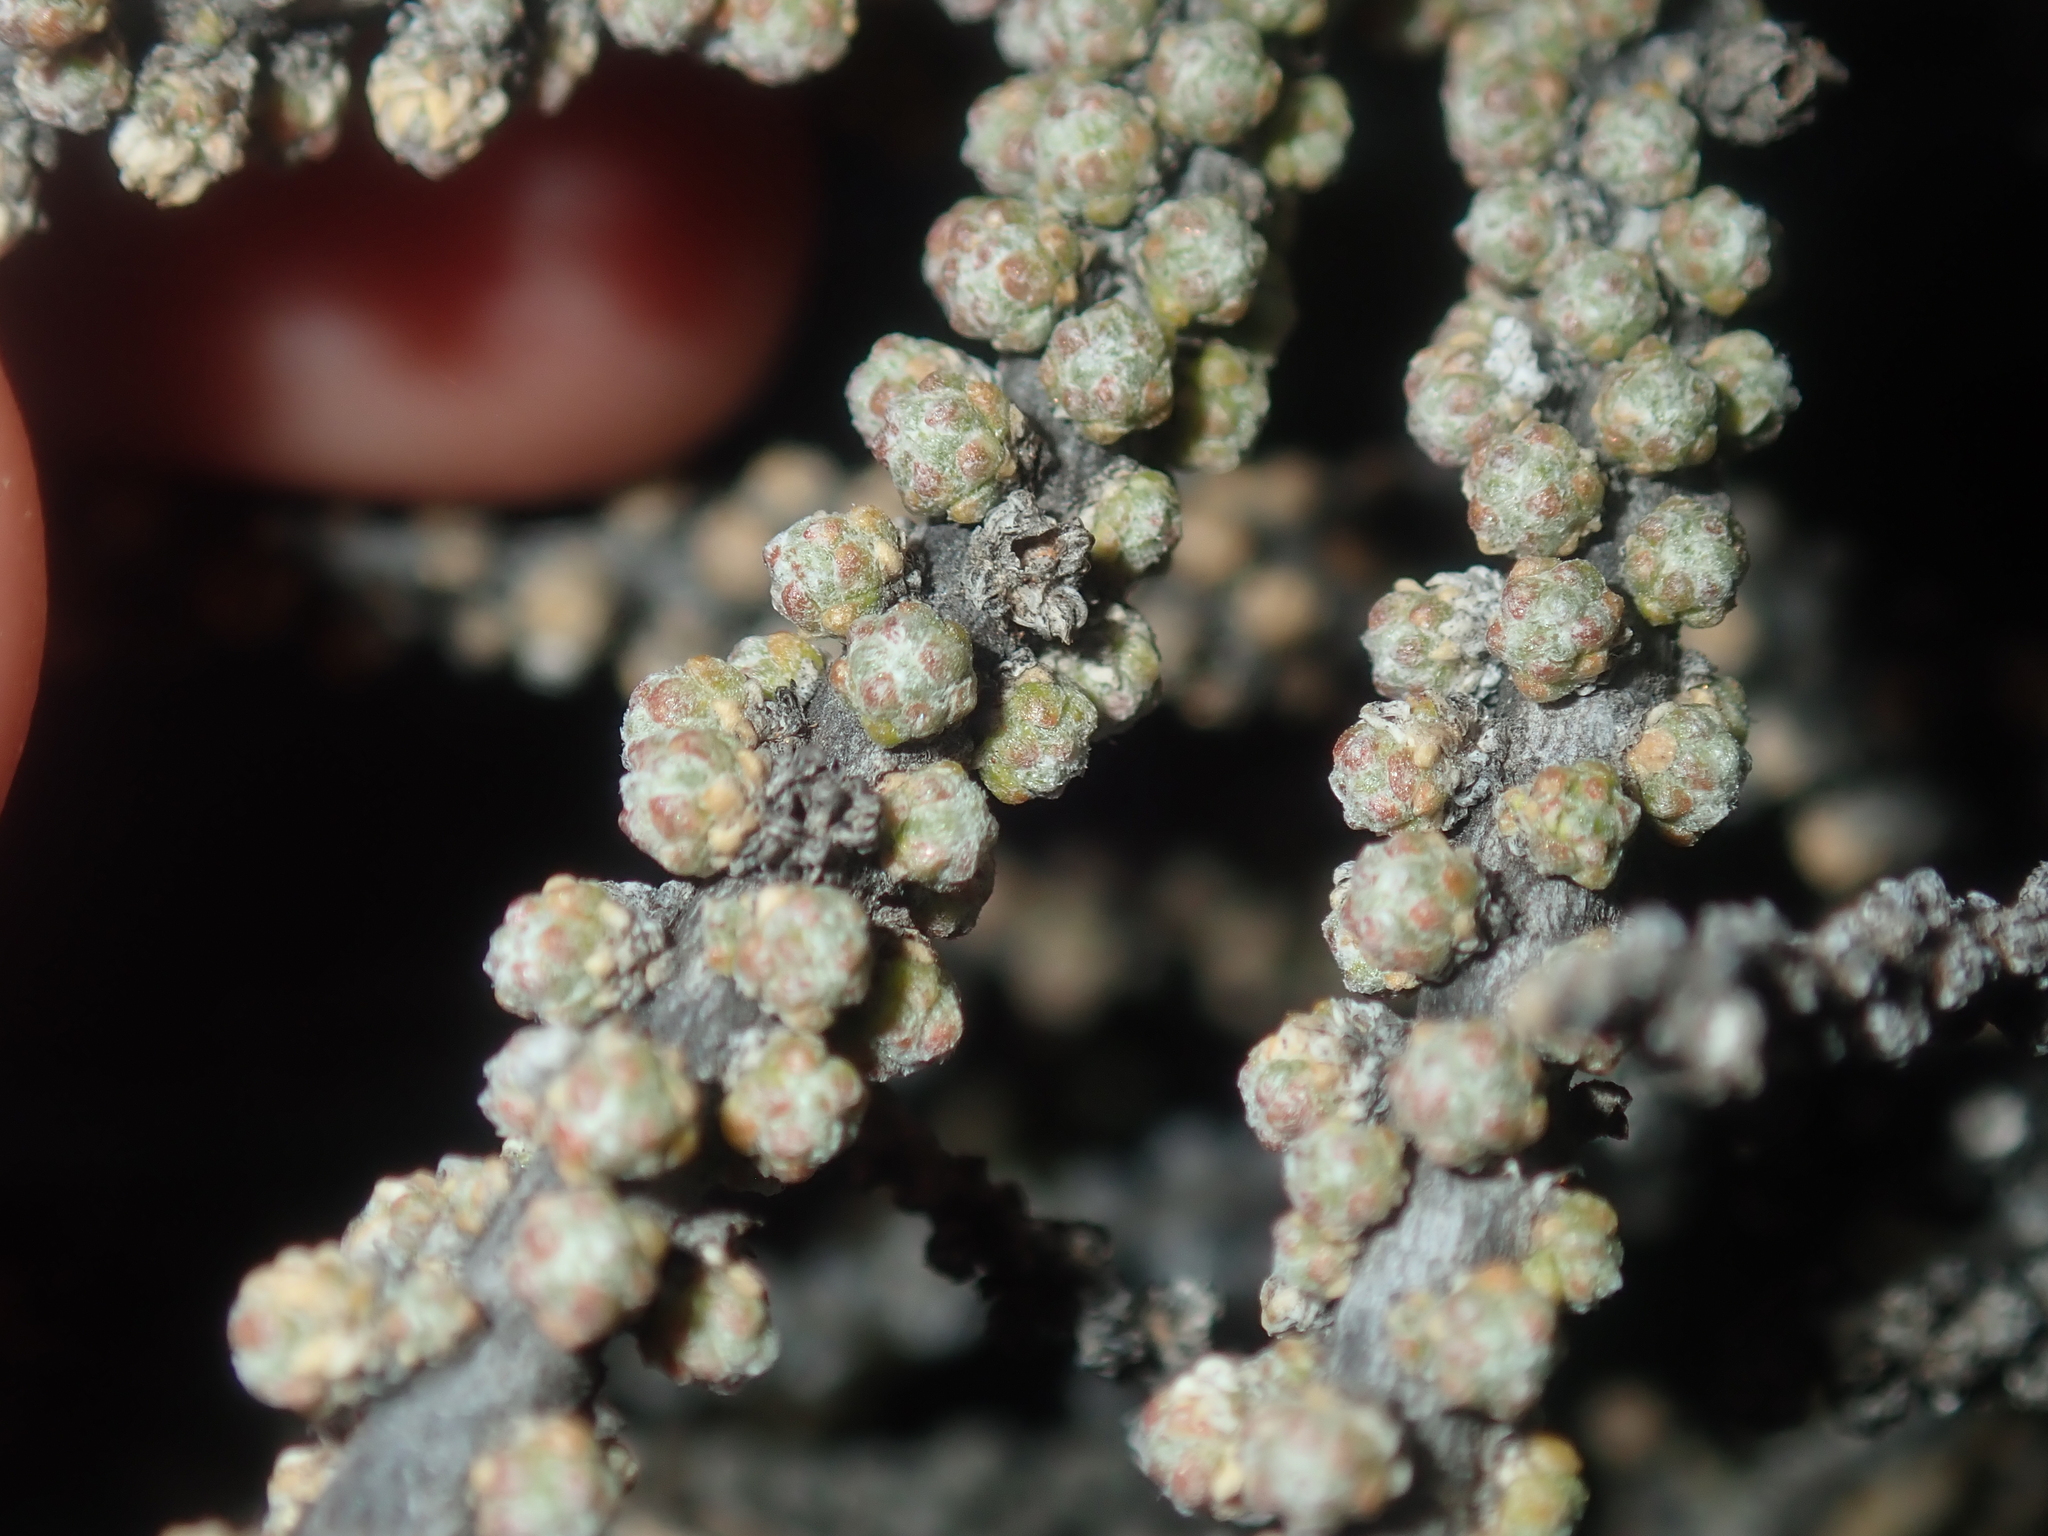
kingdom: Plantae
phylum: Tracheophyta
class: Magnoliopsida
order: Caryophyllales
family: Amaranthaceae
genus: Maireana
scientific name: Maireana glomerifolia
